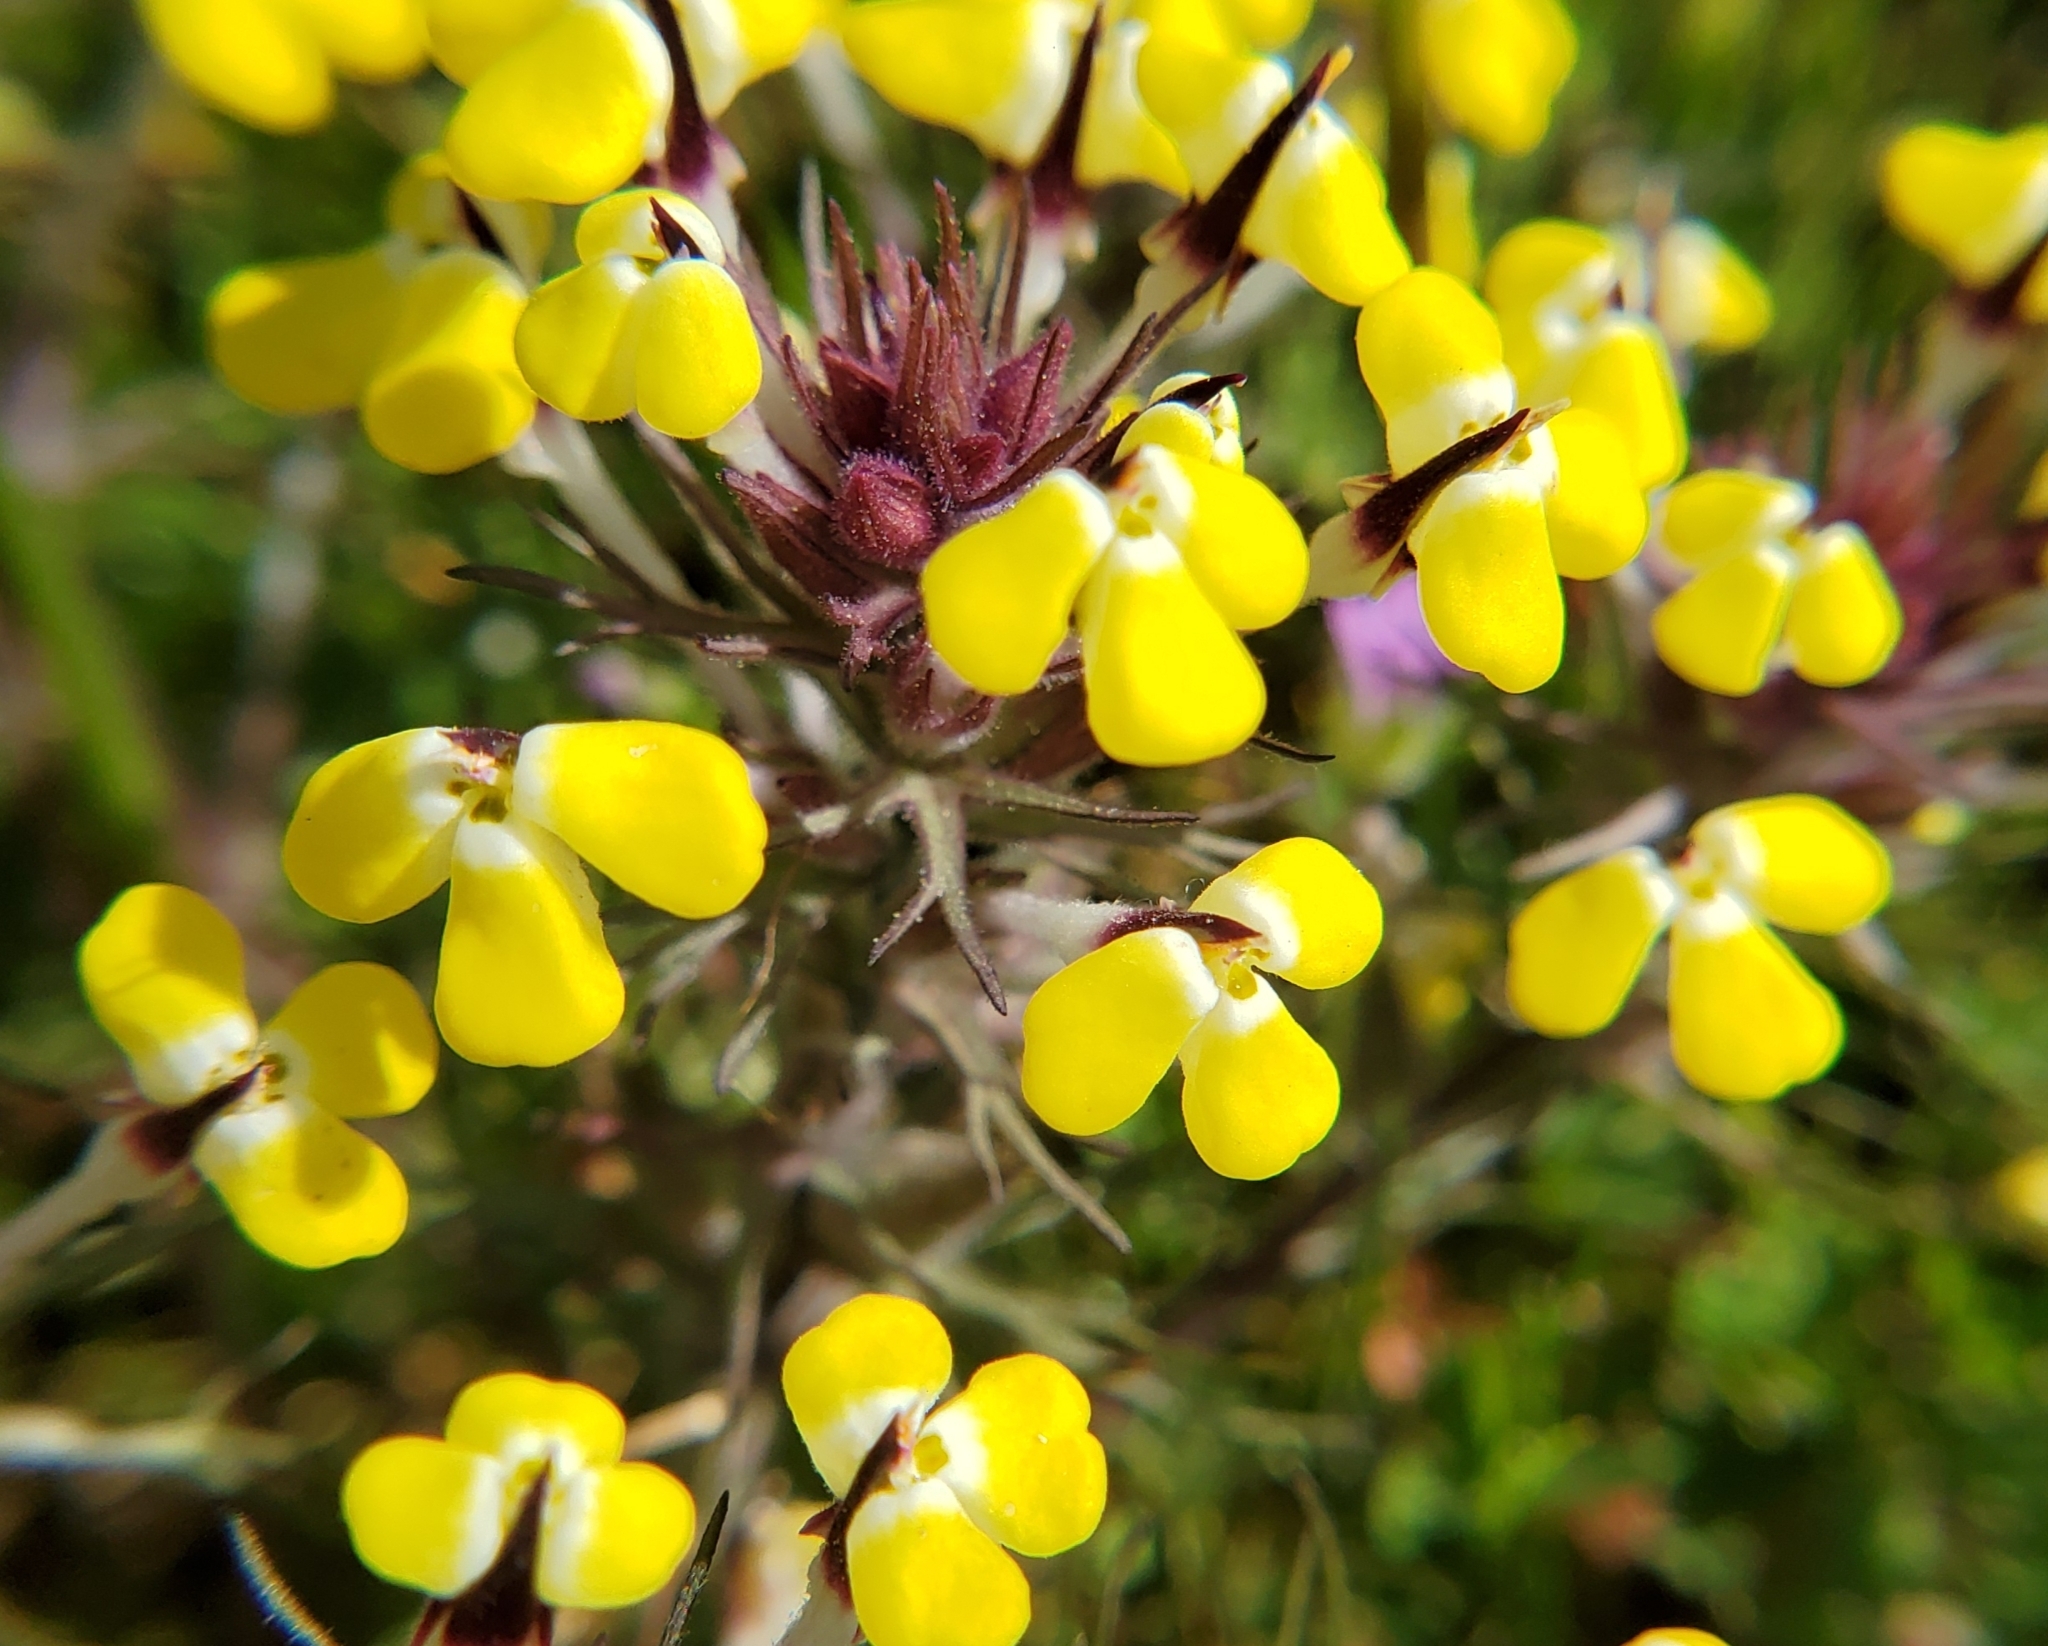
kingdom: Plantae
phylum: Tracheophyta
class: Magnoliopsida
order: Lamiales
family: Orobanchaceae
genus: Triphysaria
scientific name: Triphysaria eriantha
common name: Johnny-tuck
